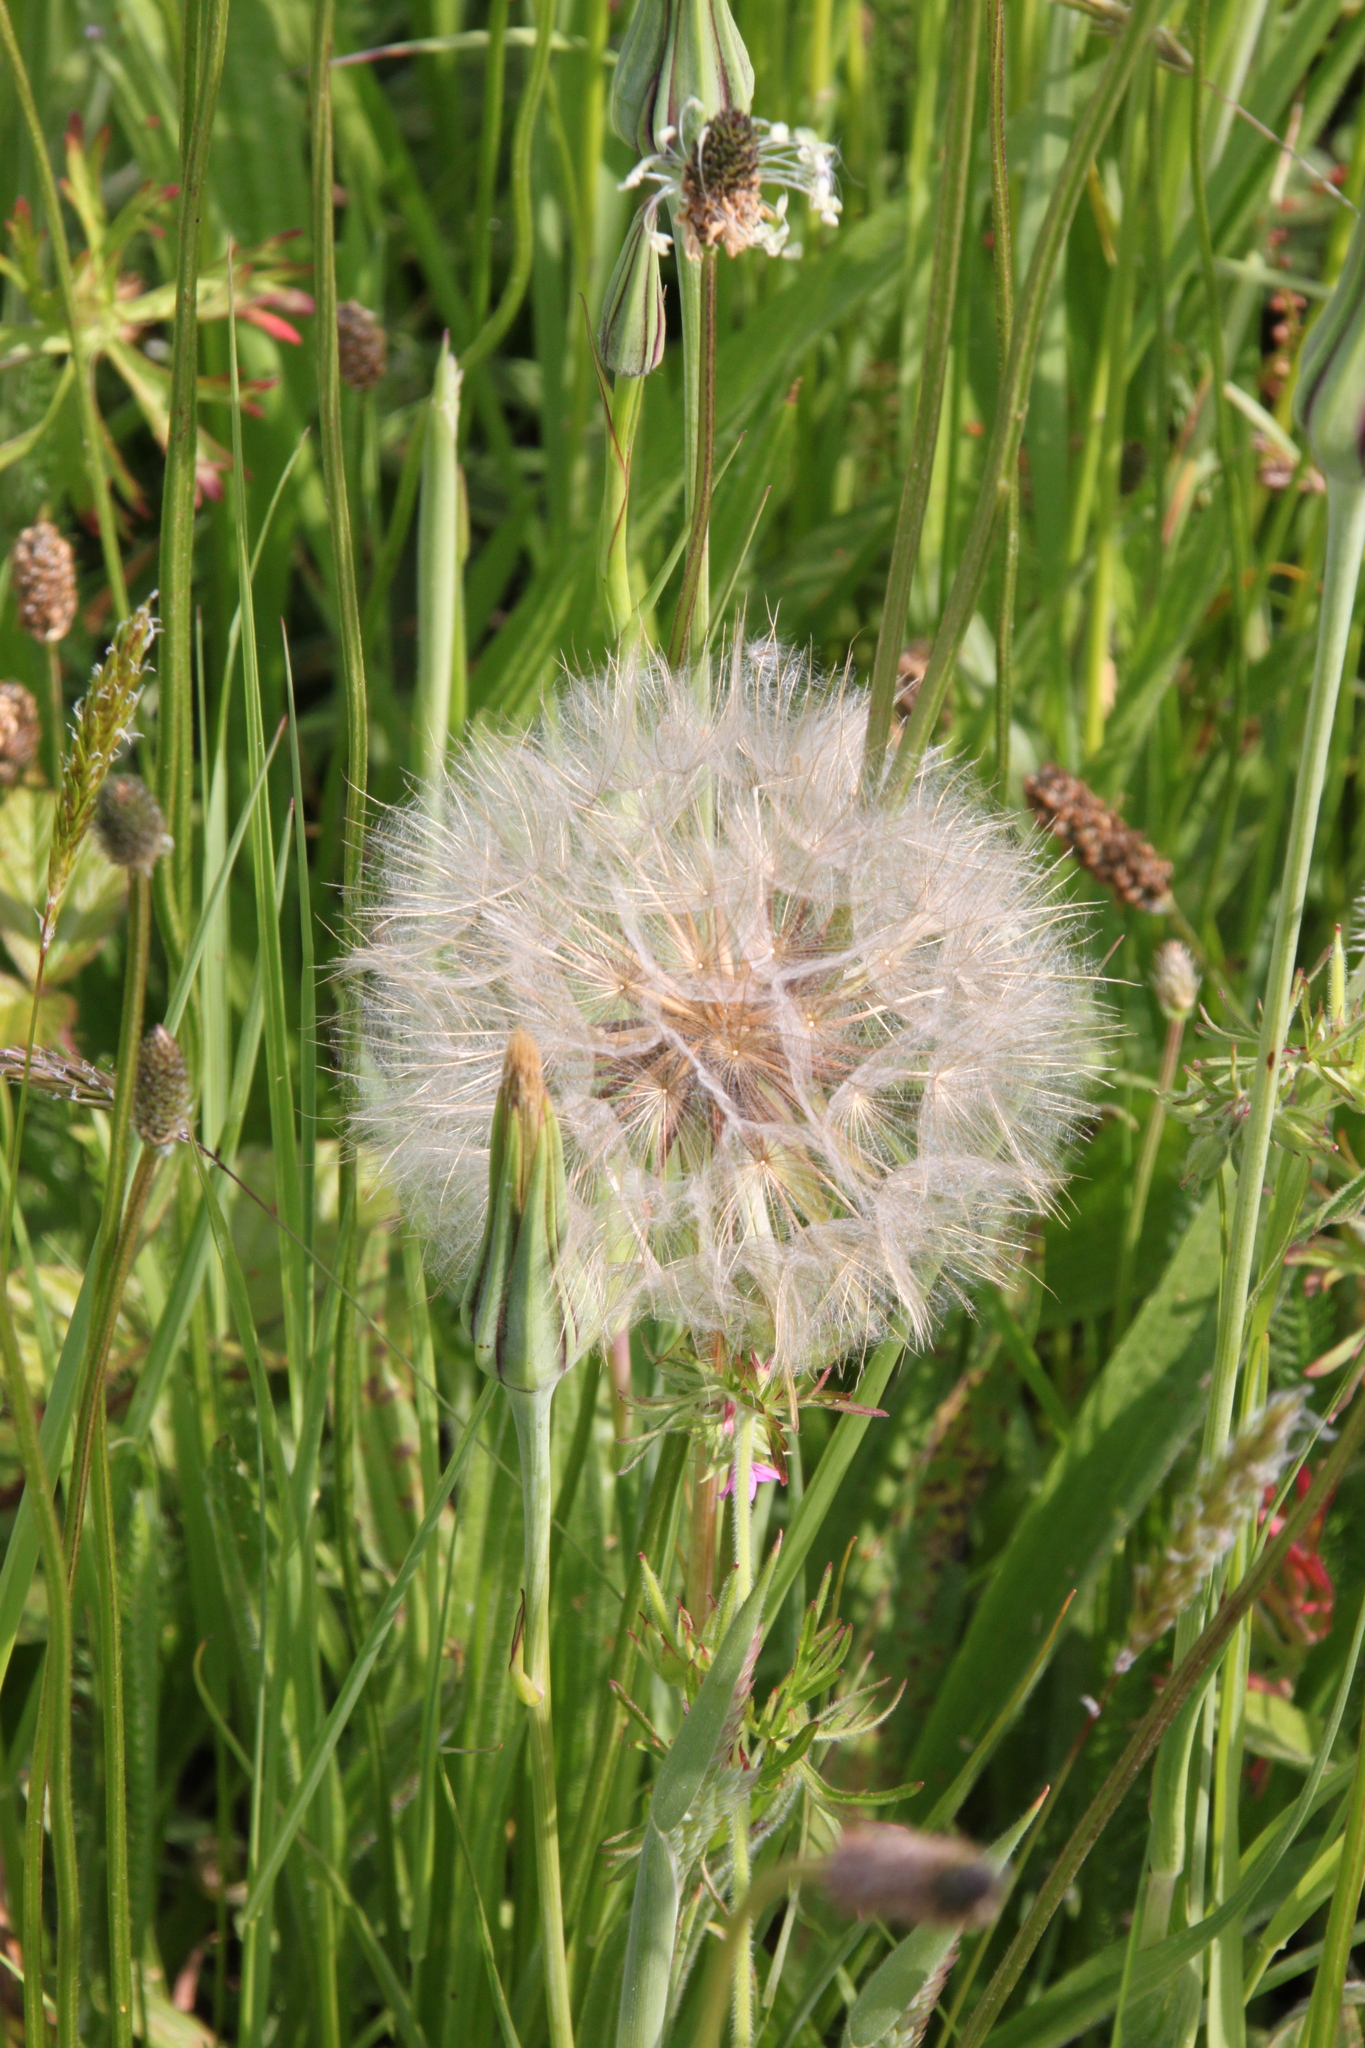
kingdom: Plantae
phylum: Tracheophyta
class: Magnoliopsida
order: Asterales
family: Asteraceae
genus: Tragopogon
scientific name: Tragopogon pratensis
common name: Goat's-beard
